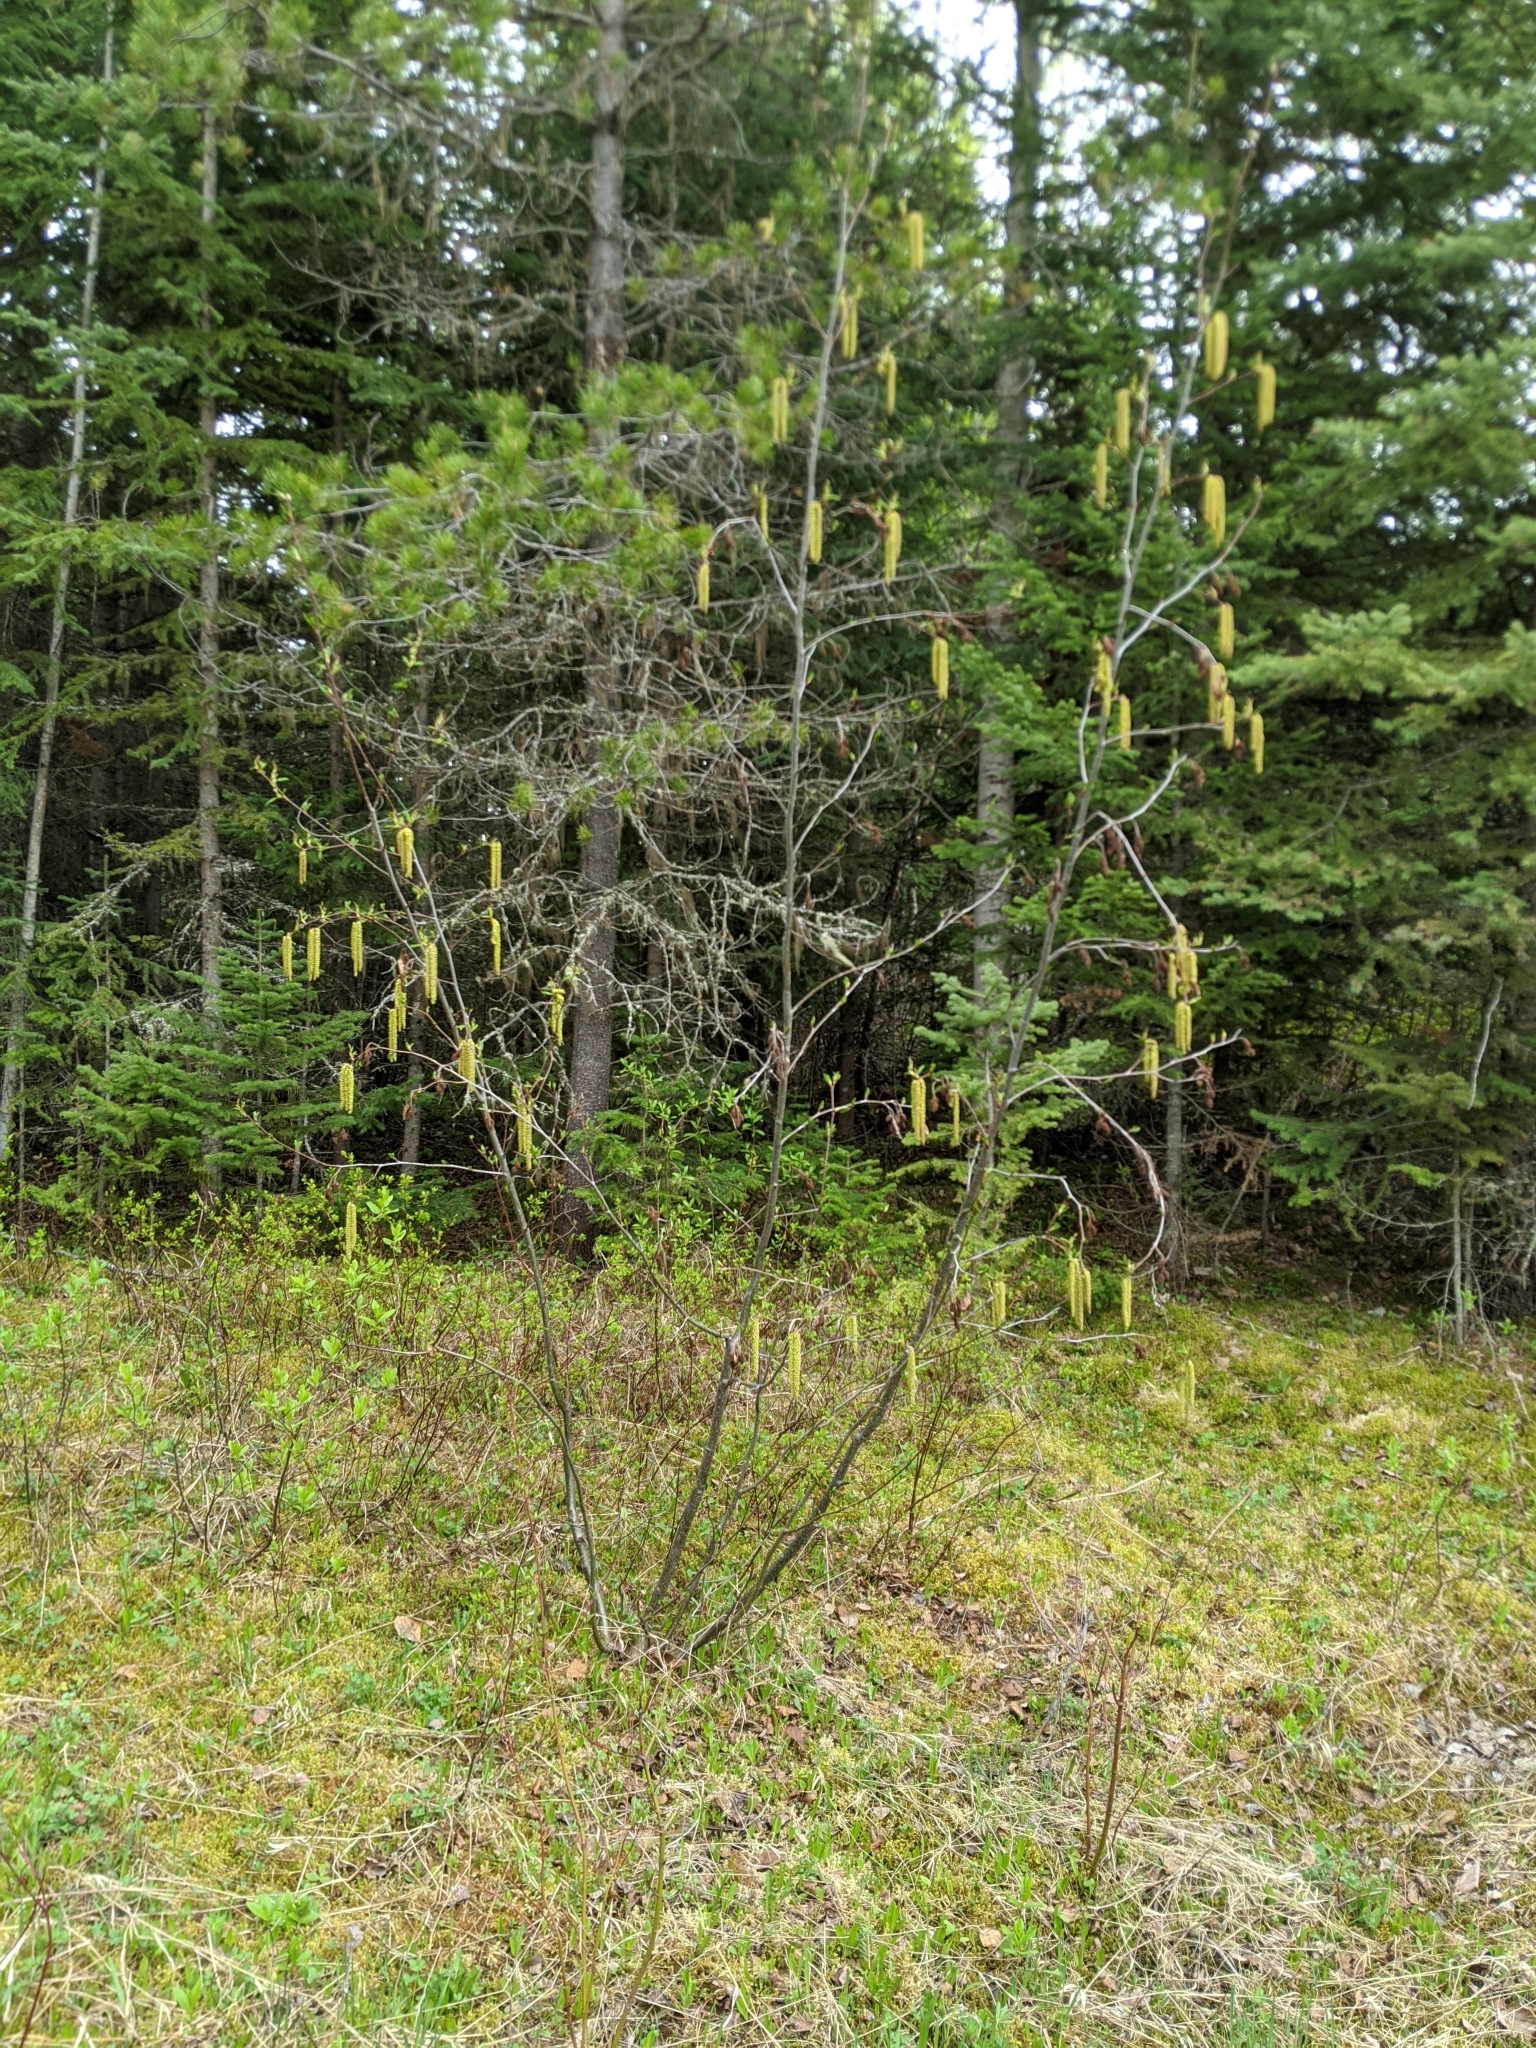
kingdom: Plantae
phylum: Tracheophyta
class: Magnoliopsida
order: Fagales
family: Betulaceae
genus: Alnus
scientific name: Alnus alnobetula
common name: Green alder
